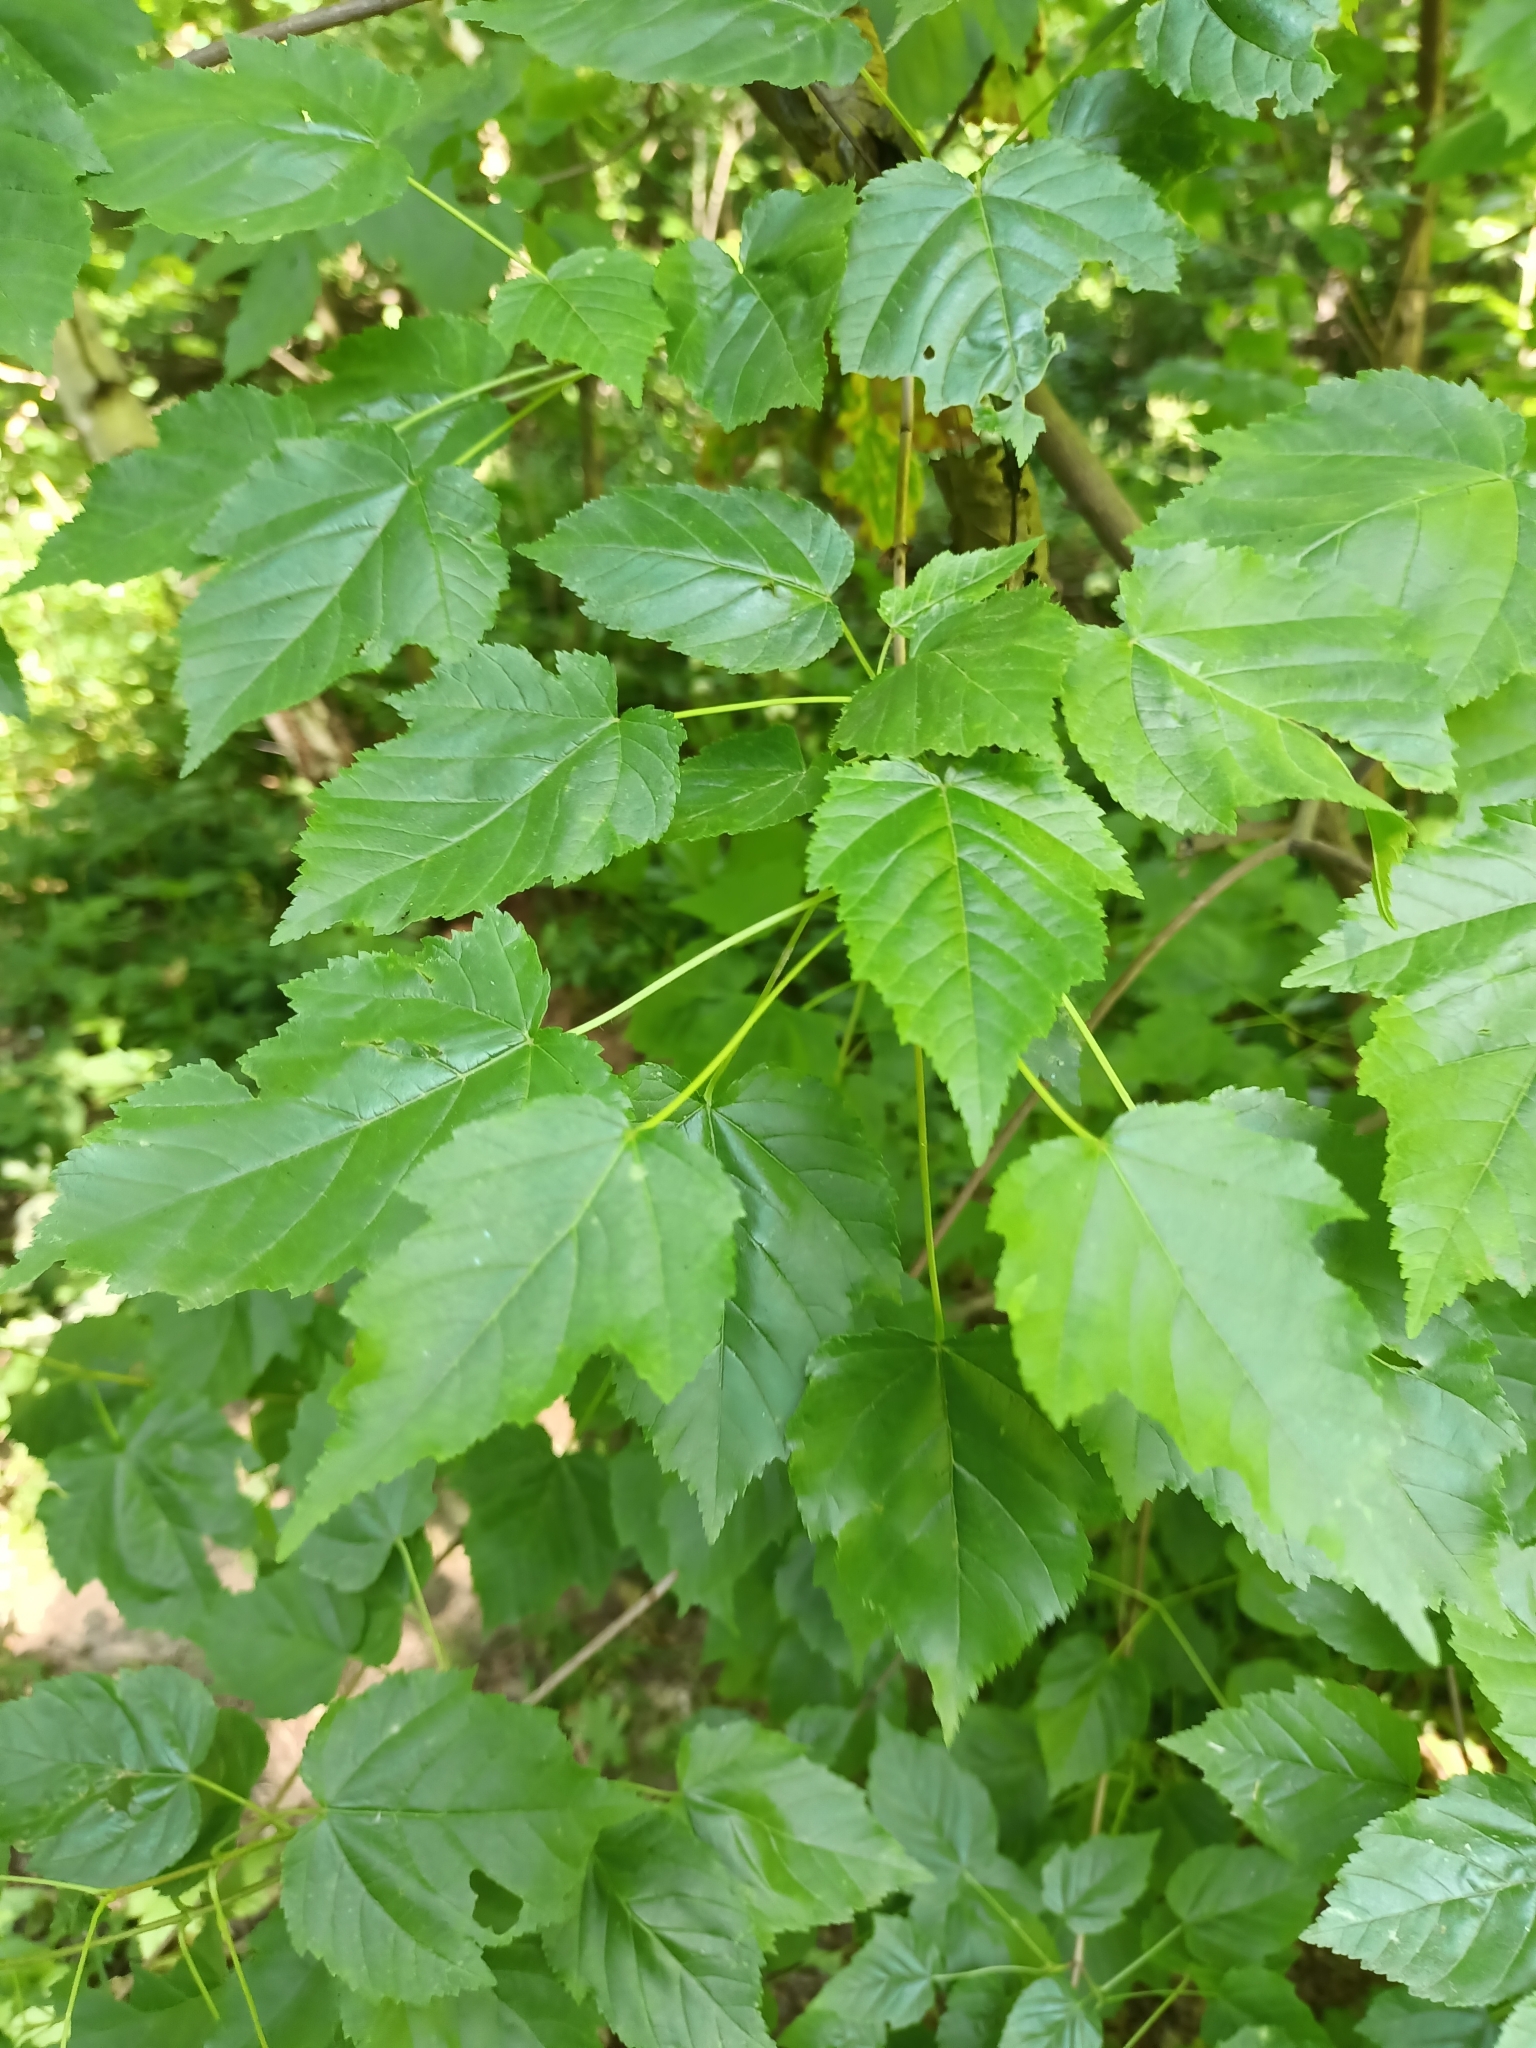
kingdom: Plantae
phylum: Tracheophyta
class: Magnoliopsida
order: Sapindales
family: Sapindaceae
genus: Acer
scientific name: Acer tataricum
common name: Tartar maple
